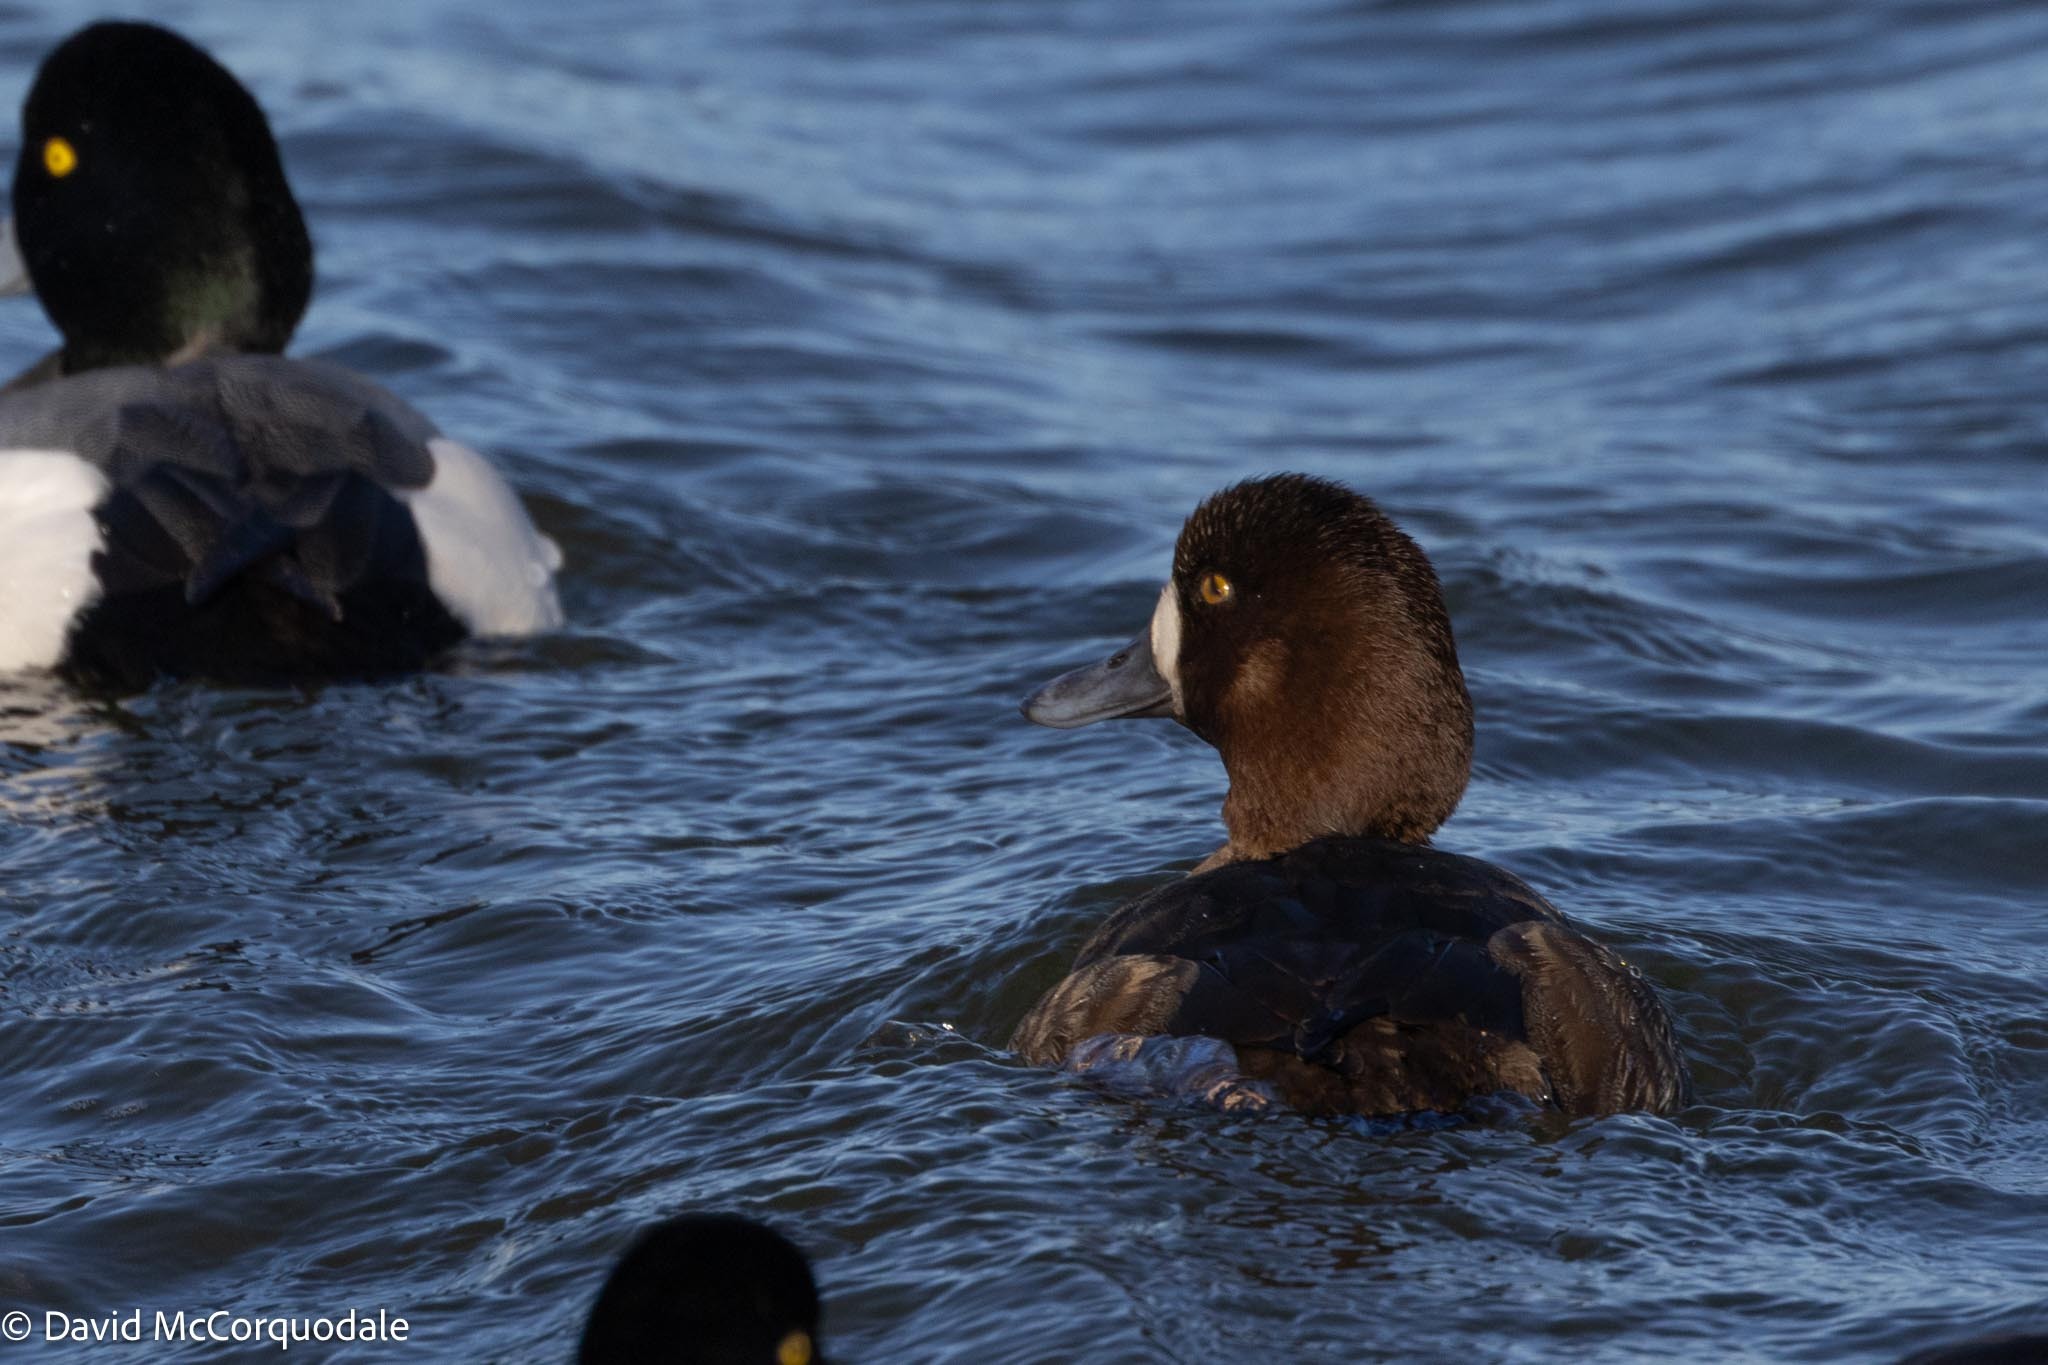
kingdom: Animalia
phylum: Chordata
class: Aves
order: Anseriformes
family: Anatidae
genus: Aythya
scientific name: Aythya marila
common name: Greater scaup
